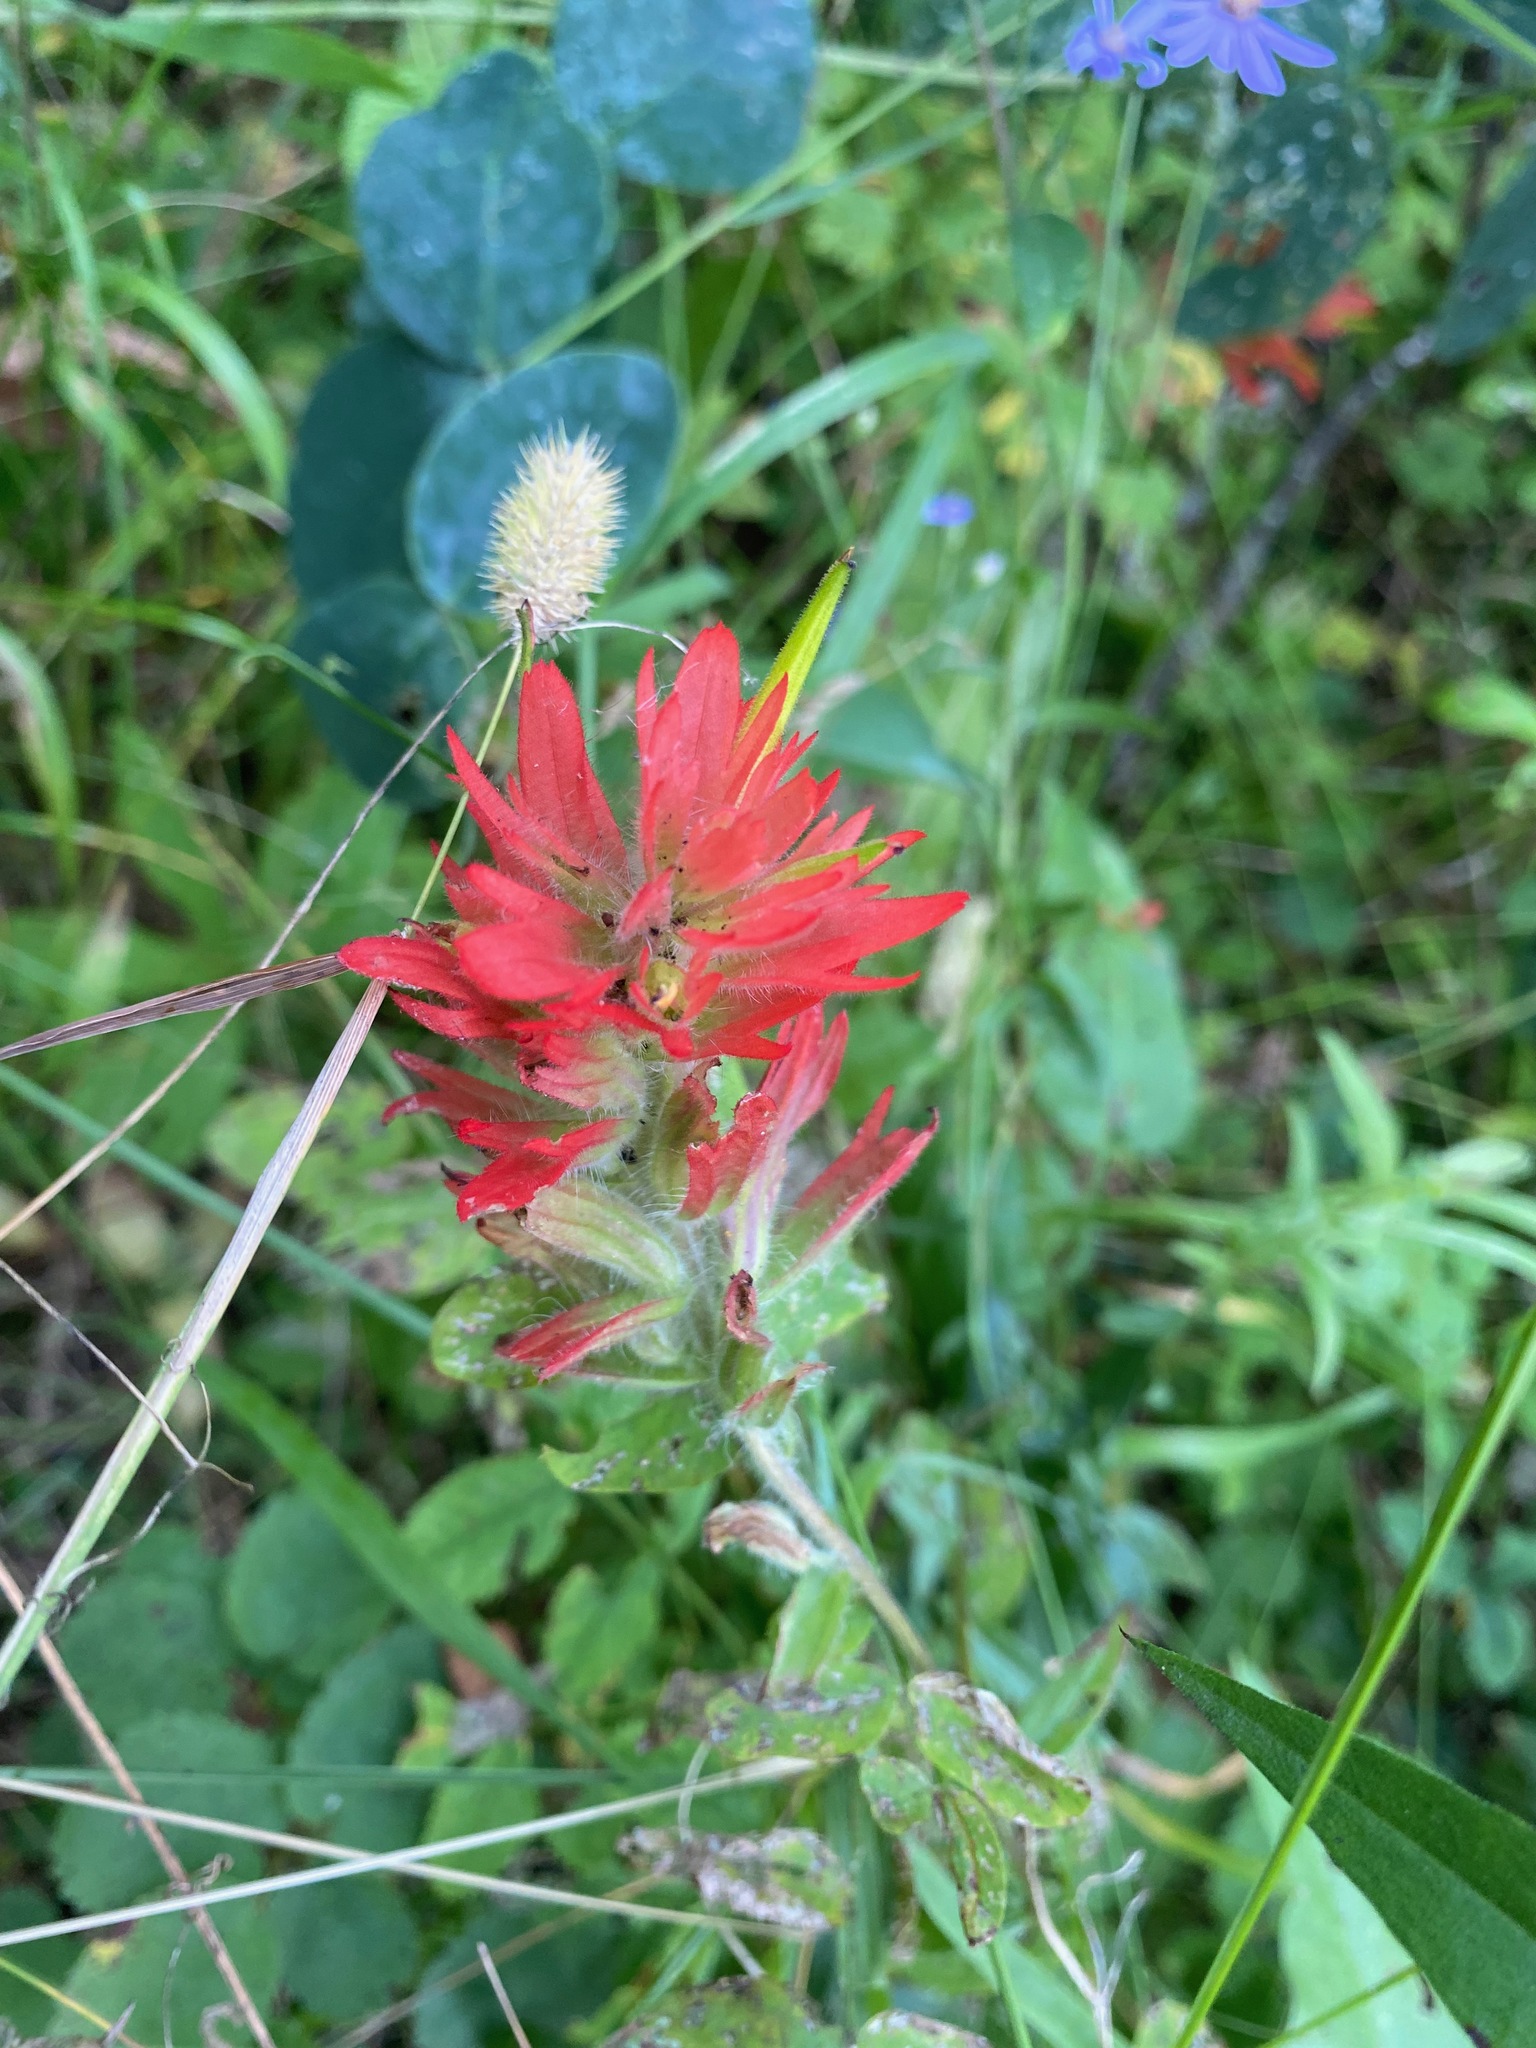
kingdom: Plantae
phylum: Tracheophyta
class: Magnoliopsida
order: Lamiales
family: Orobanchaceae
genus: Castilleja
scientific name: Castilleja miniata
